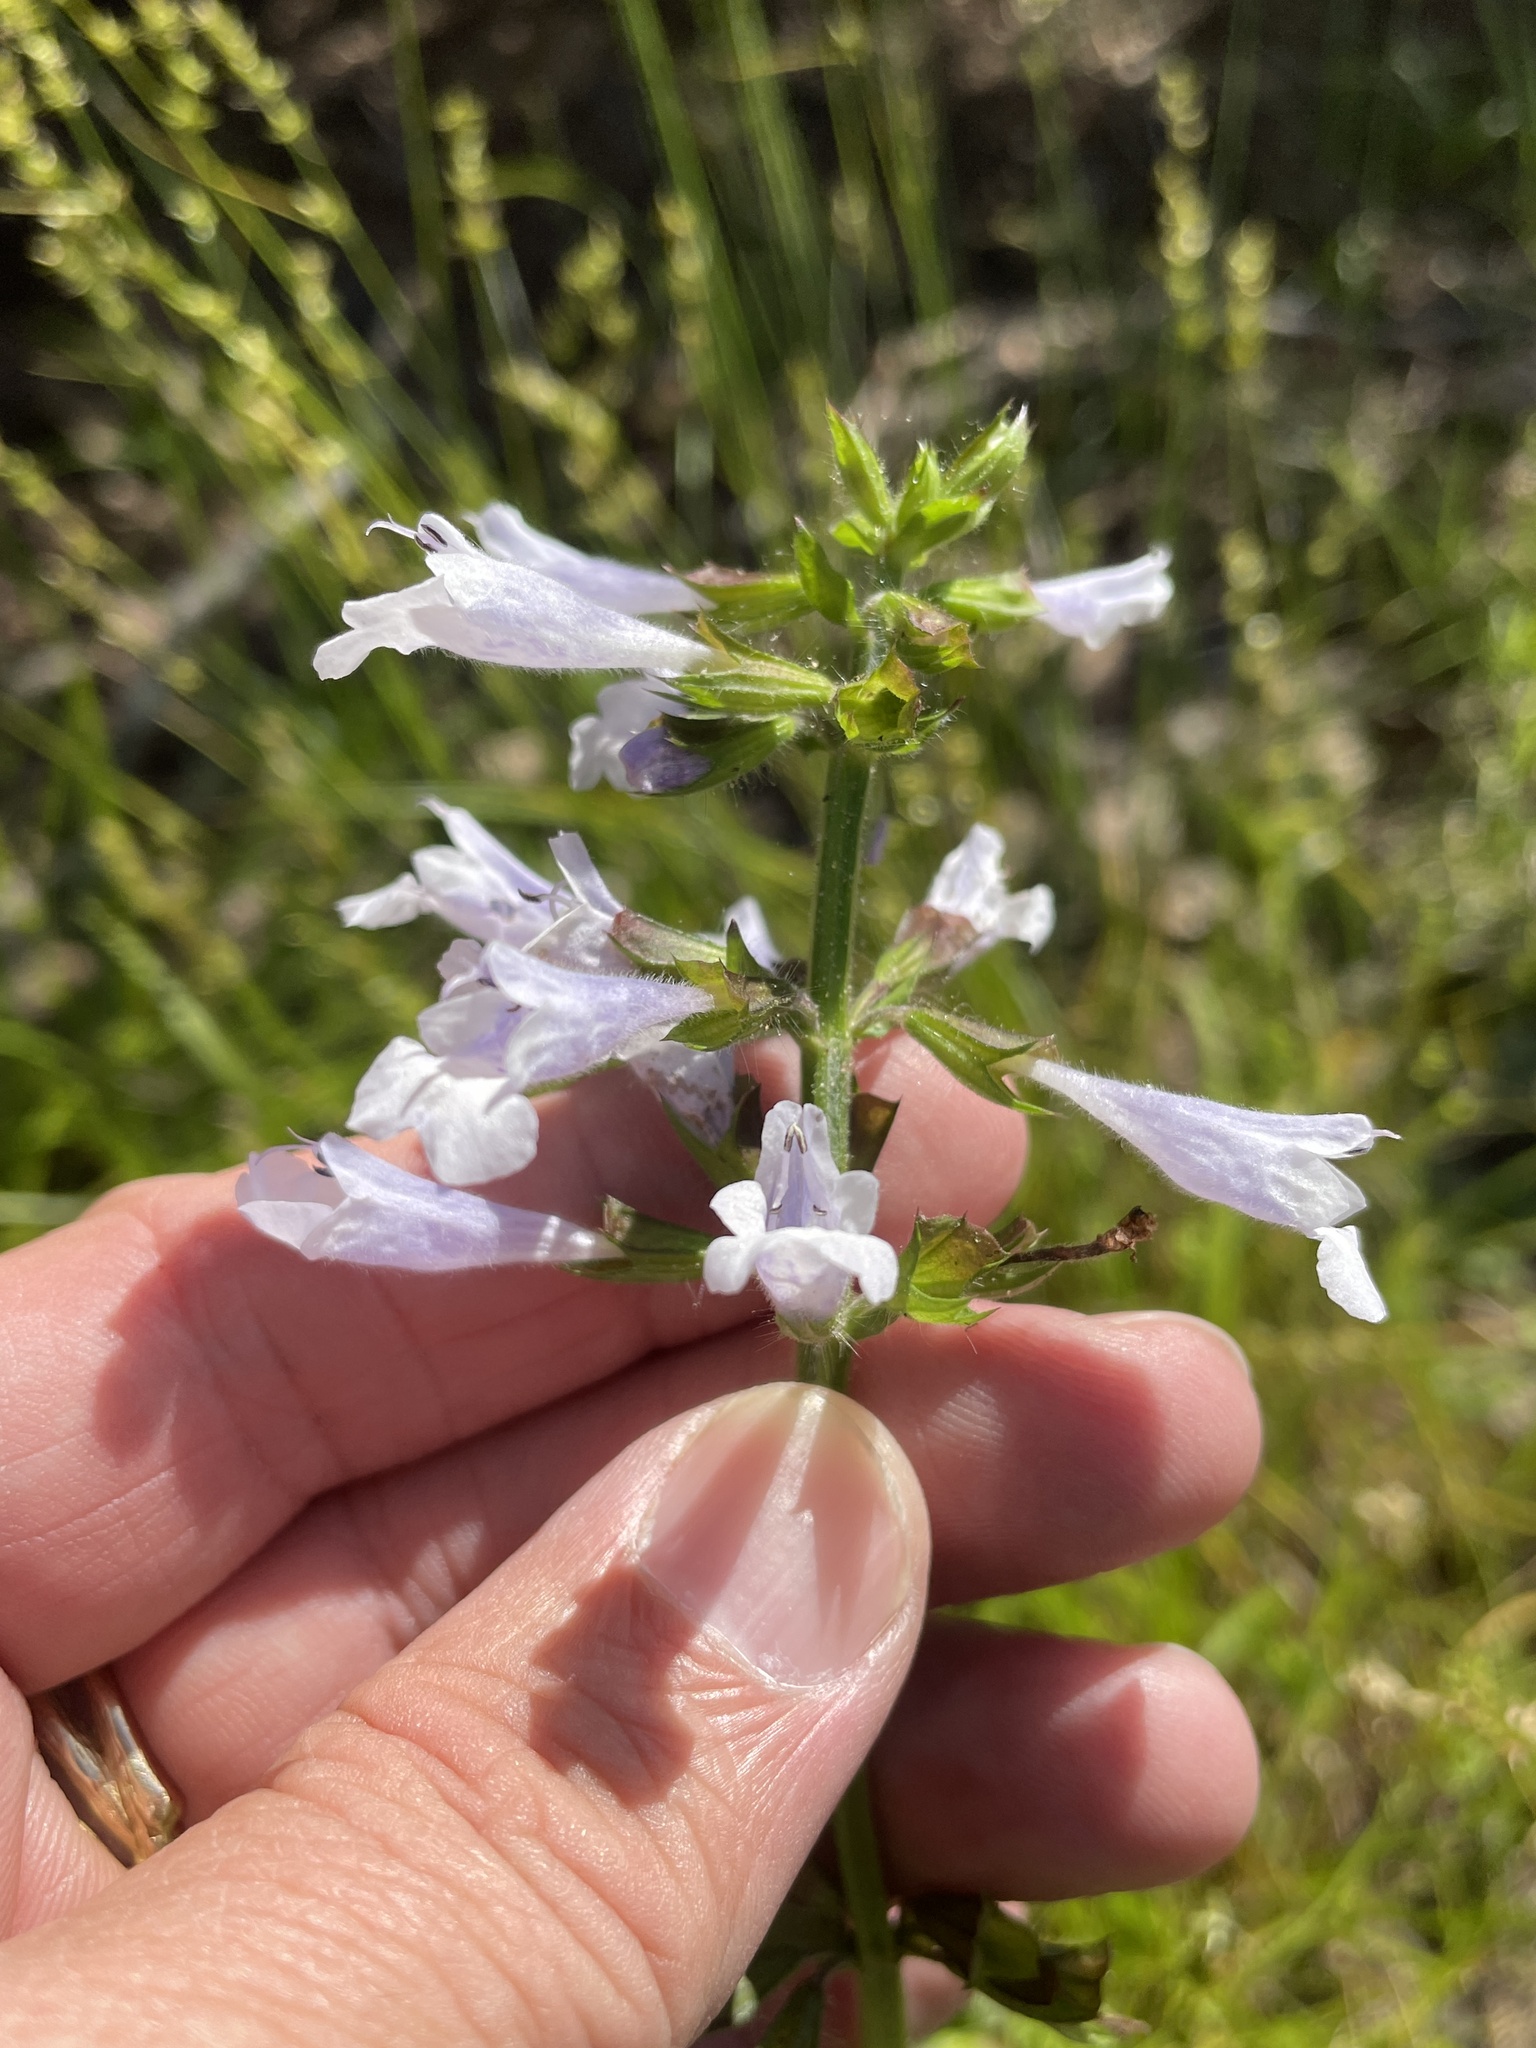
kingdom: Plantae
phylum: Tracheophyta
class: Magnoliopsida
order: Lamiales
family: Lamiaceae
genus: Salvia
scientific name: Salvia lyrata
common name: Cancerweed
